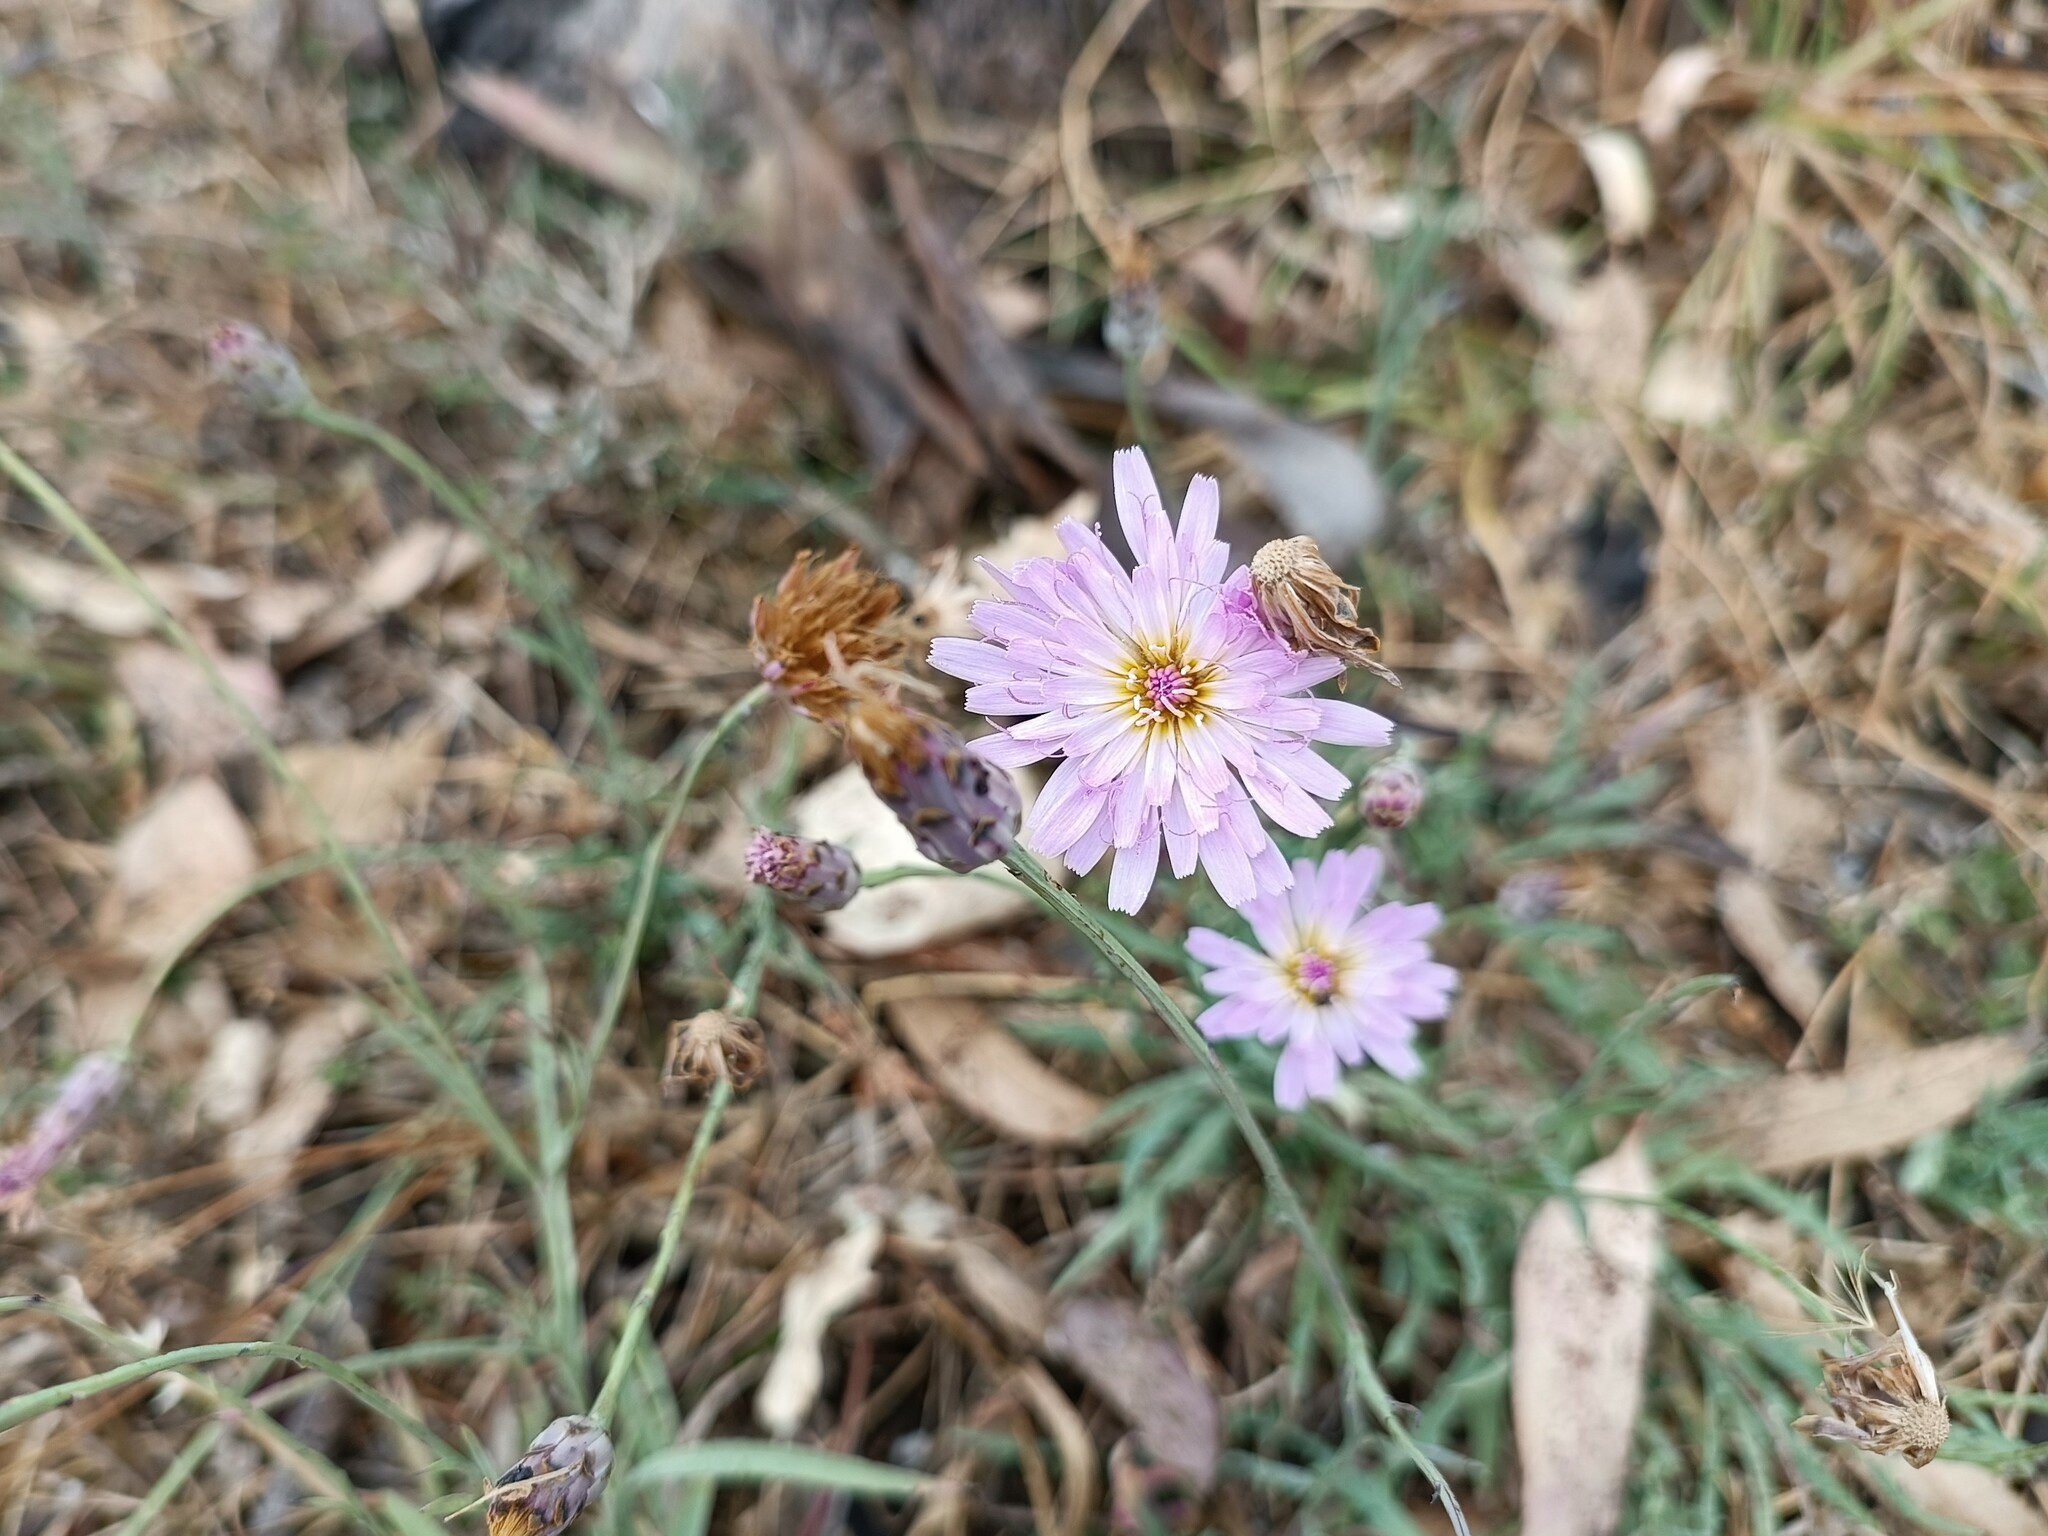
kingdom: Plantae
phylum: Tracheophyta
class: Magnoliopsida
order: Asterales
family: Asteraceae
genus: Pinaropappus
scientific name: Pinaropappus roseus
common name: Rock-lettuce
